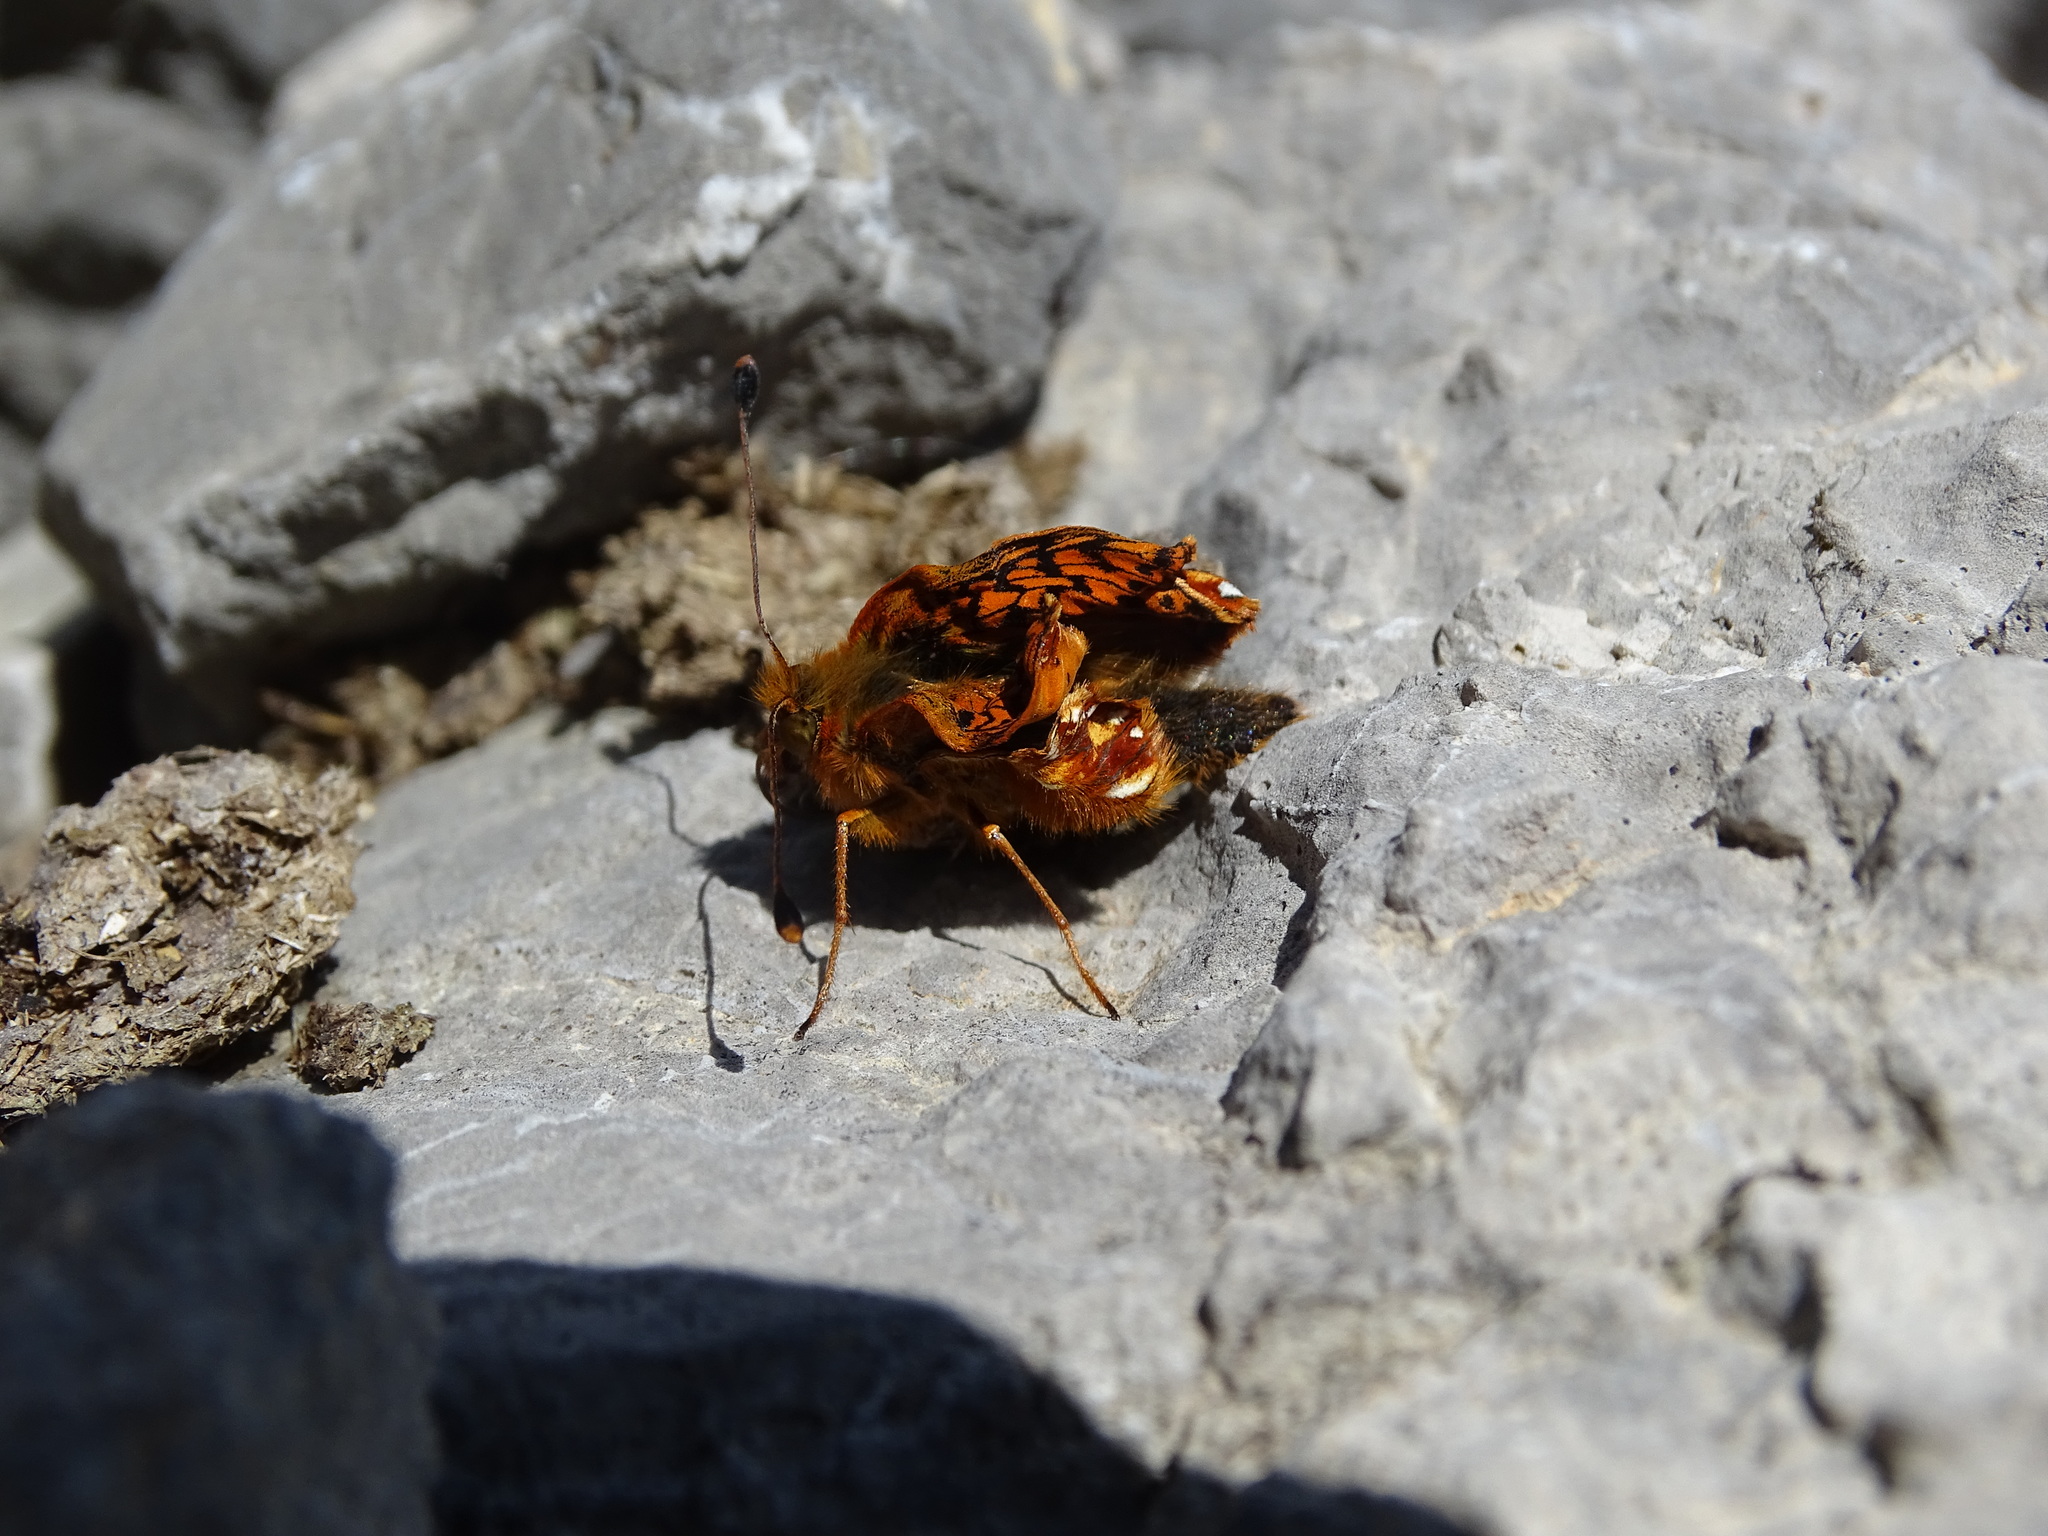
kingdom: Animalia
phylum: Arthropoda
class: Insecta
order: Lepidoptera
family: Nymphalidae
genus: Boloria
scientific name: Boloria pales
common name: Shepherd's fritillary
